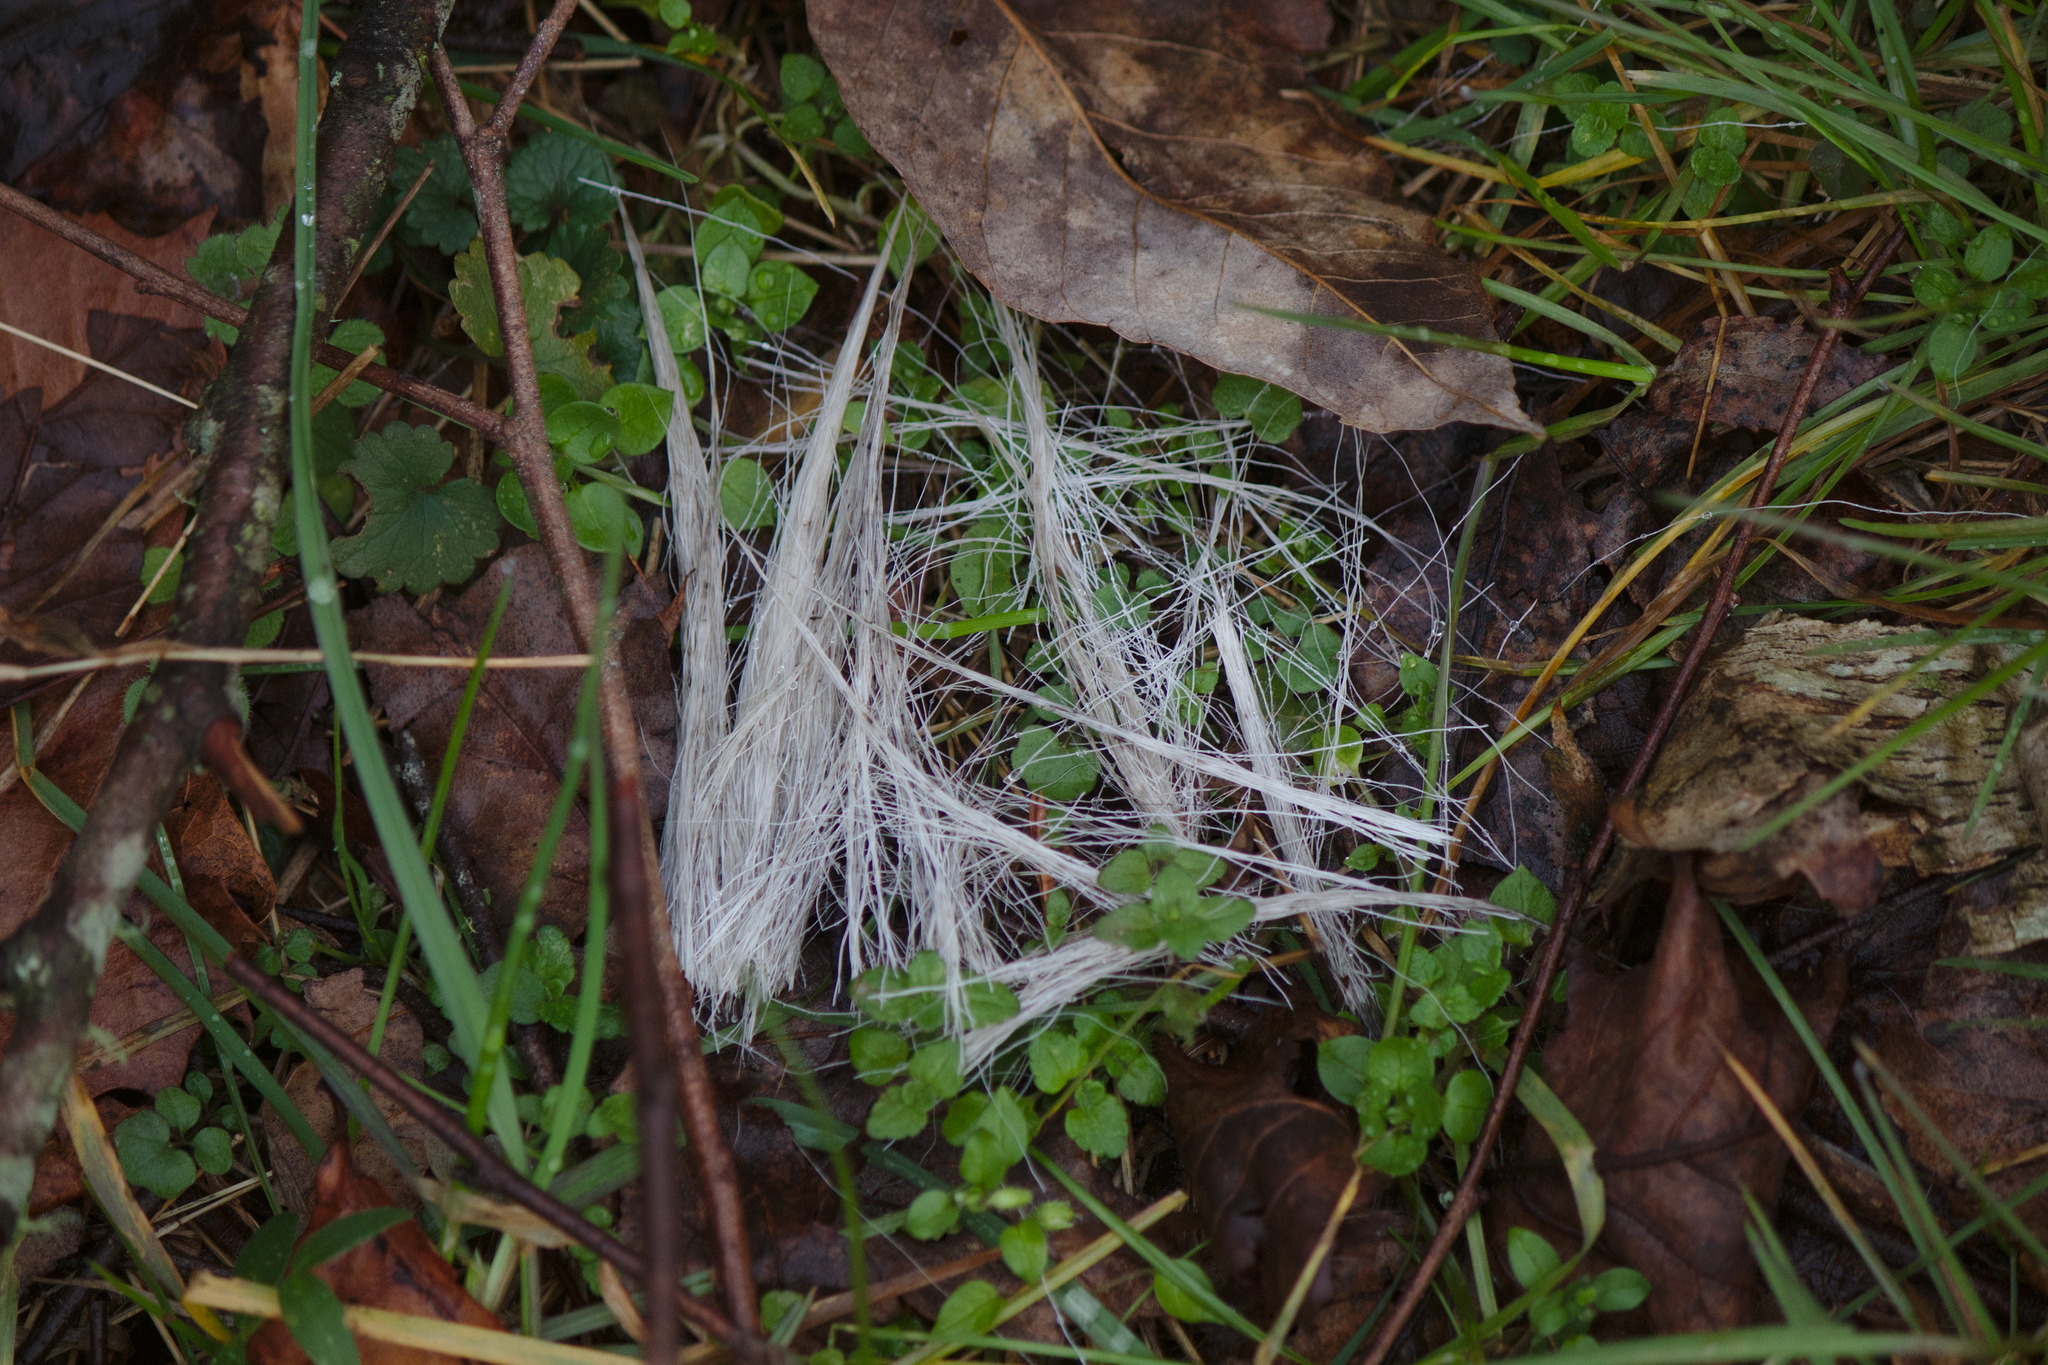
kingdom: Animalia
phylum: Chordata
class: Mammalia
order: Artiodactyla
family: Cervidae
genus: Odocoileus
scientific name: Odocoileus virginianus
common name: White-tailed deer
